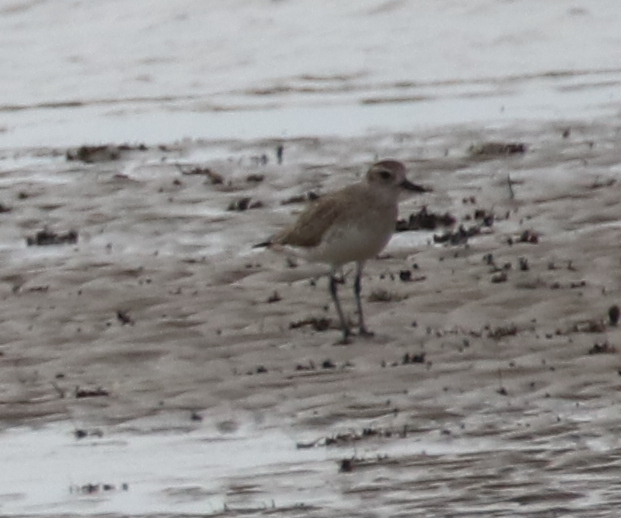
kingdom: Animalia
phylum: Chordata
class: Aves
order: Charadriiformes
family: Charadriidae
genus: Pluvialis
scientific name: Pluvialis squatarola
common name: Grey plover
